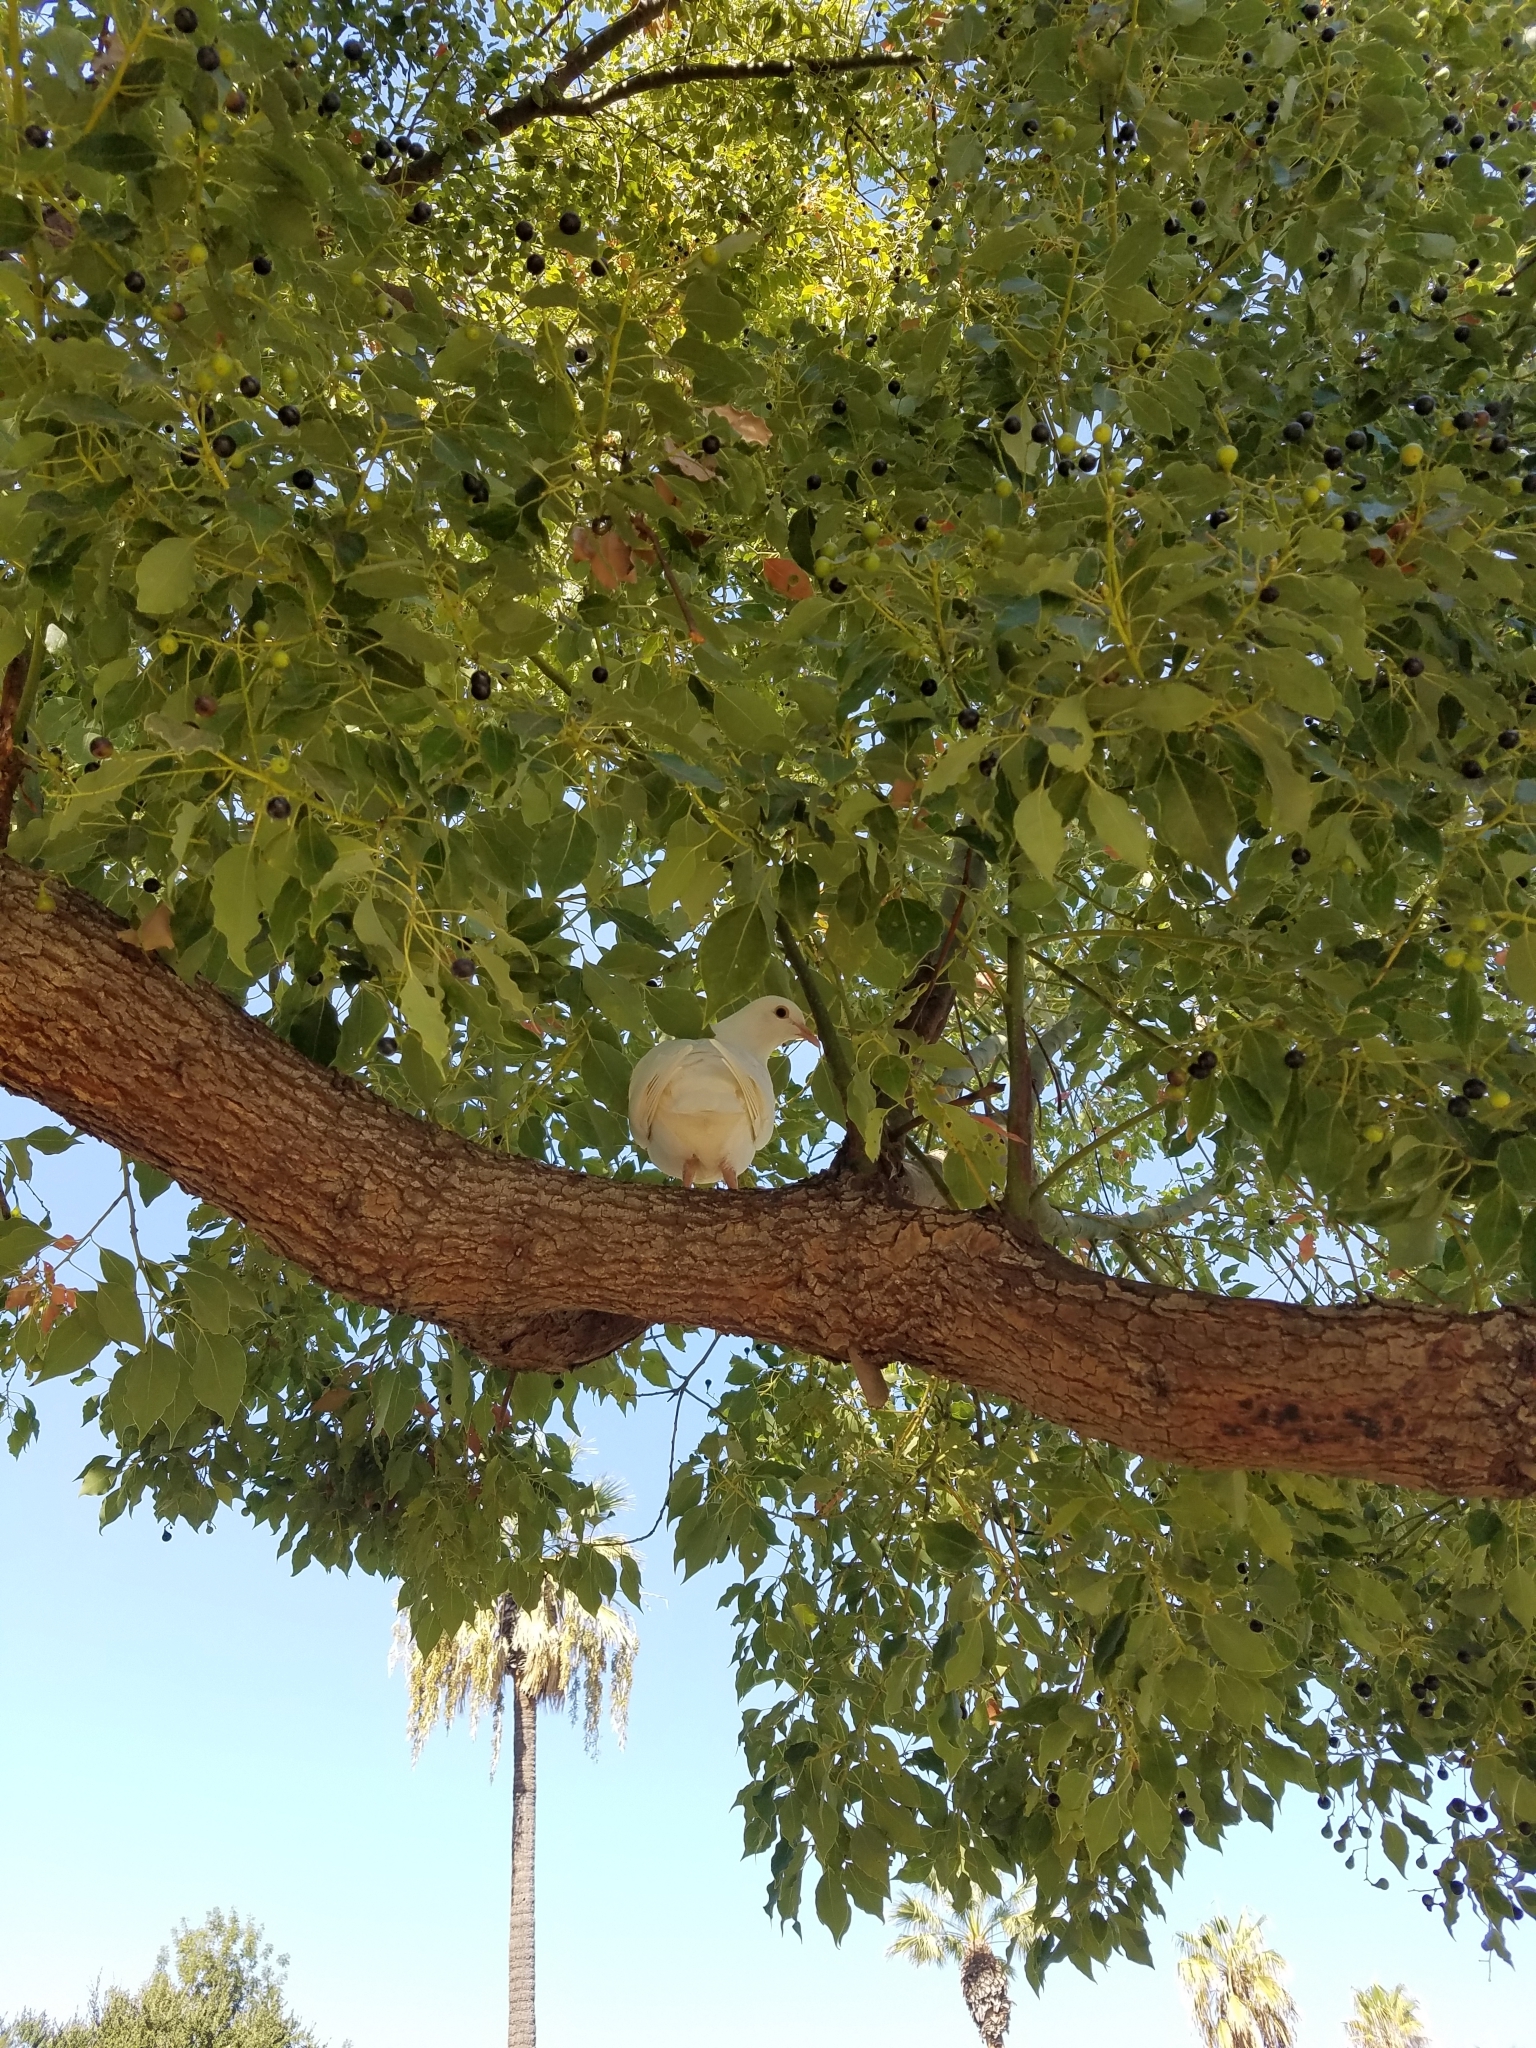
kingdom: Animalia
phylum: Chordata
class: Aves
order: Columbiformes
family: Columbidae
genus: Columba
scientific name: Columba livia
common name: Rock pigeon
